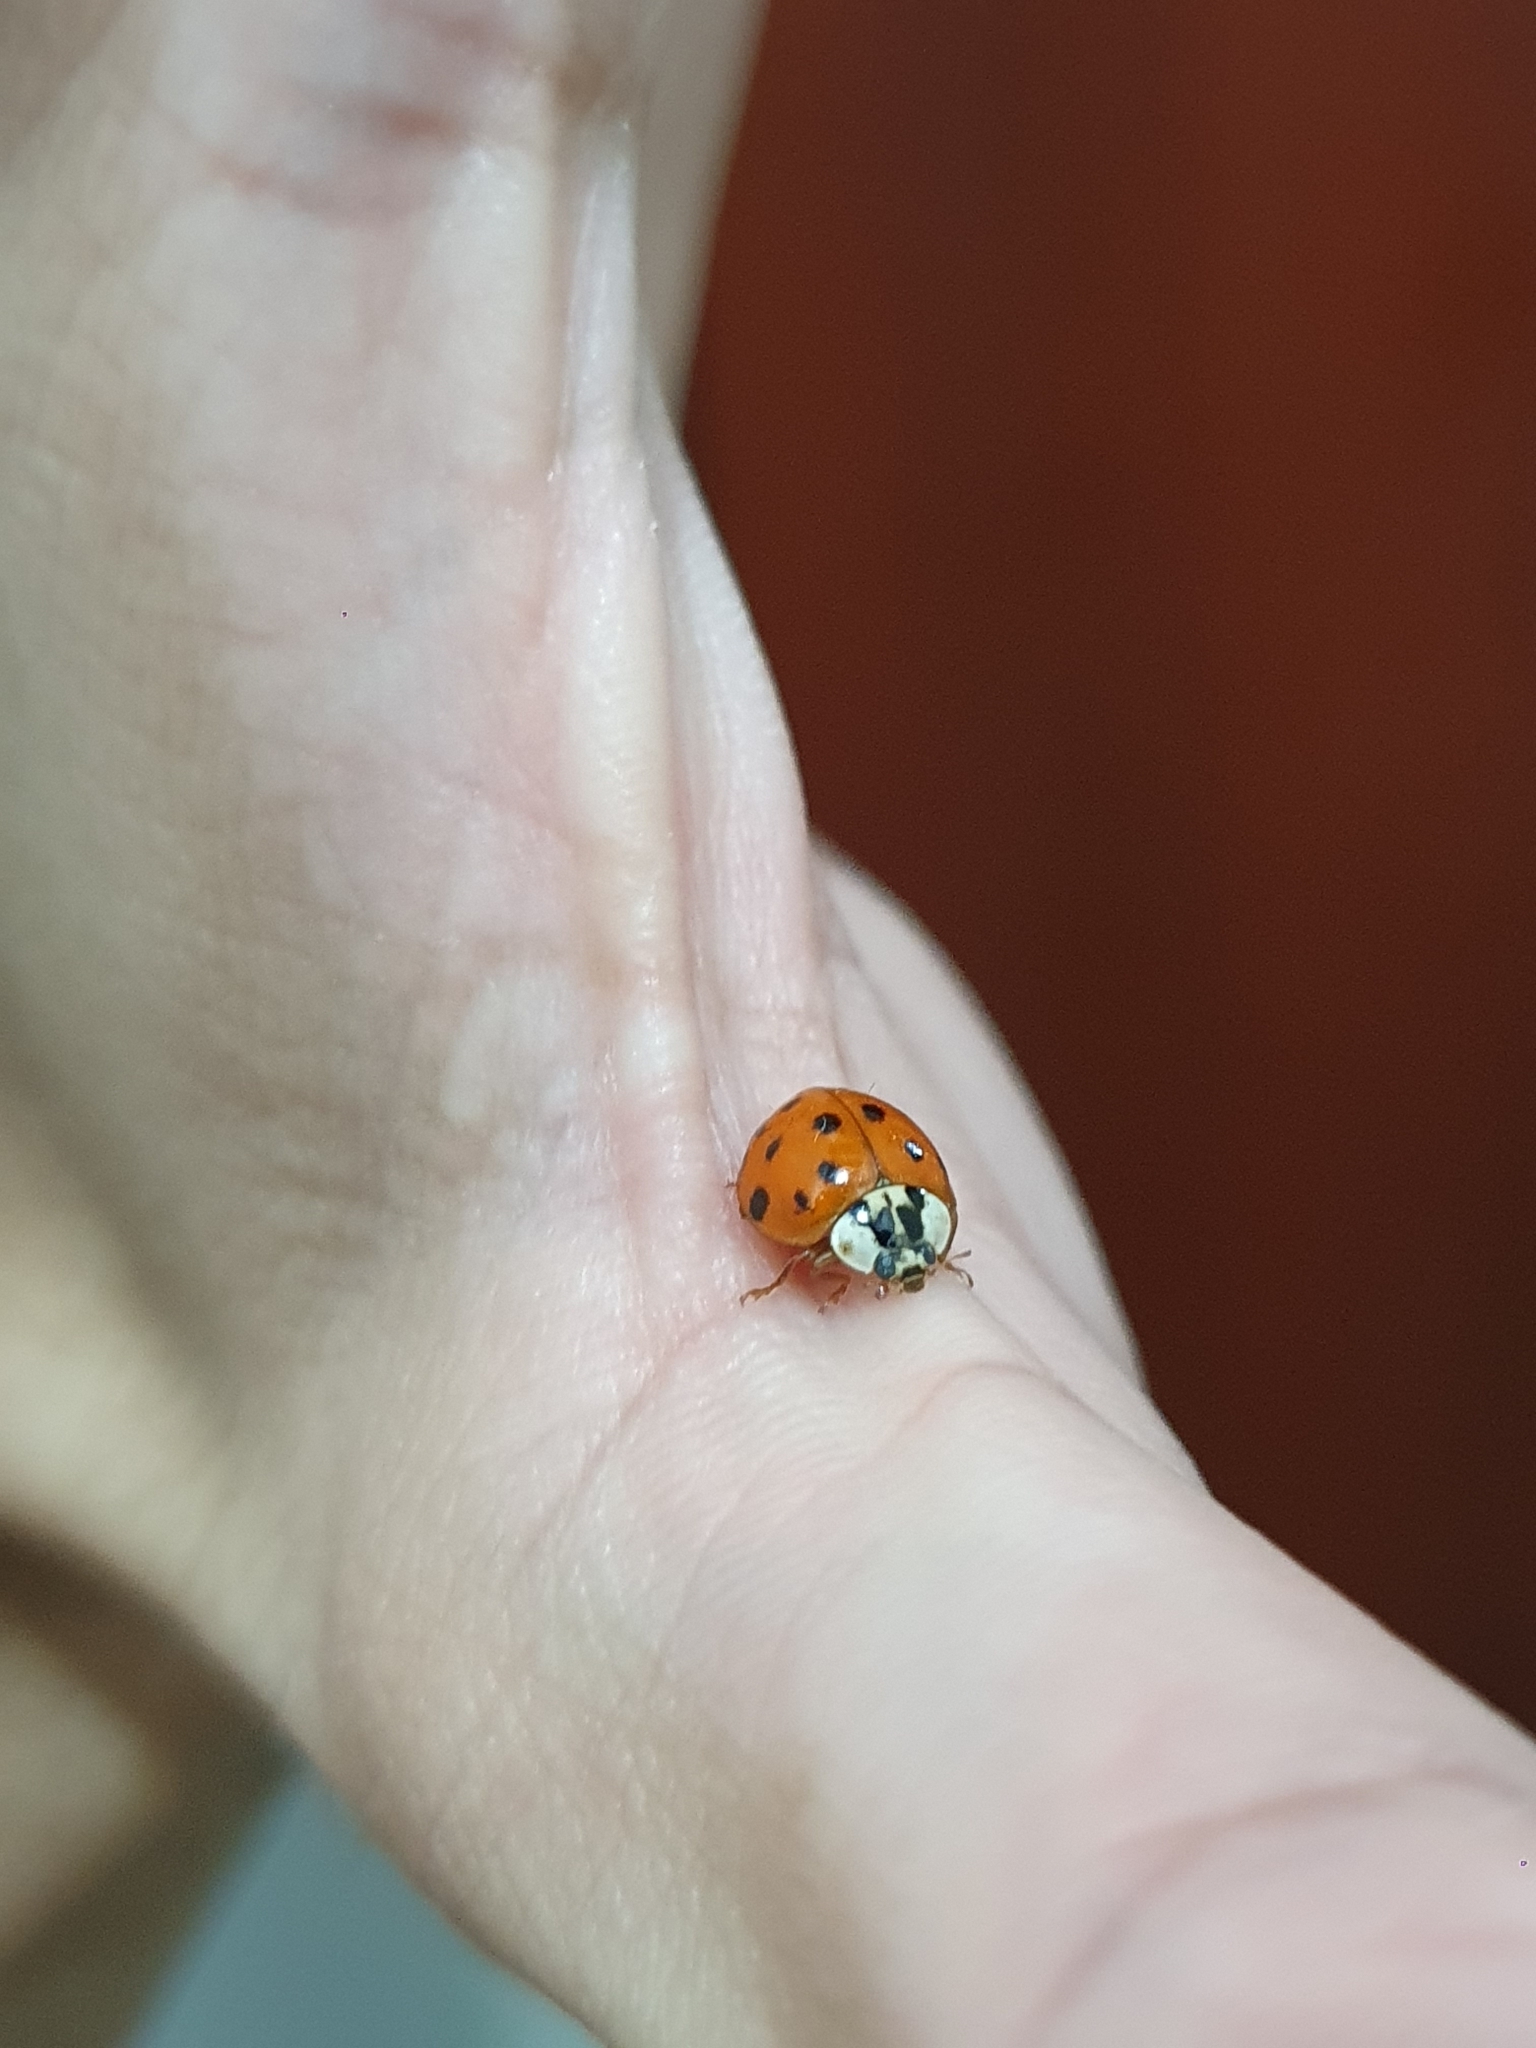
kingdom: Animalia
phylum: Arthropoda
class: Insecta
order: Coleoptera
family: Coccinellidae
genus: Harmonia
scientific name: Harmonia axyridis
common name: Harlequin ladybird
